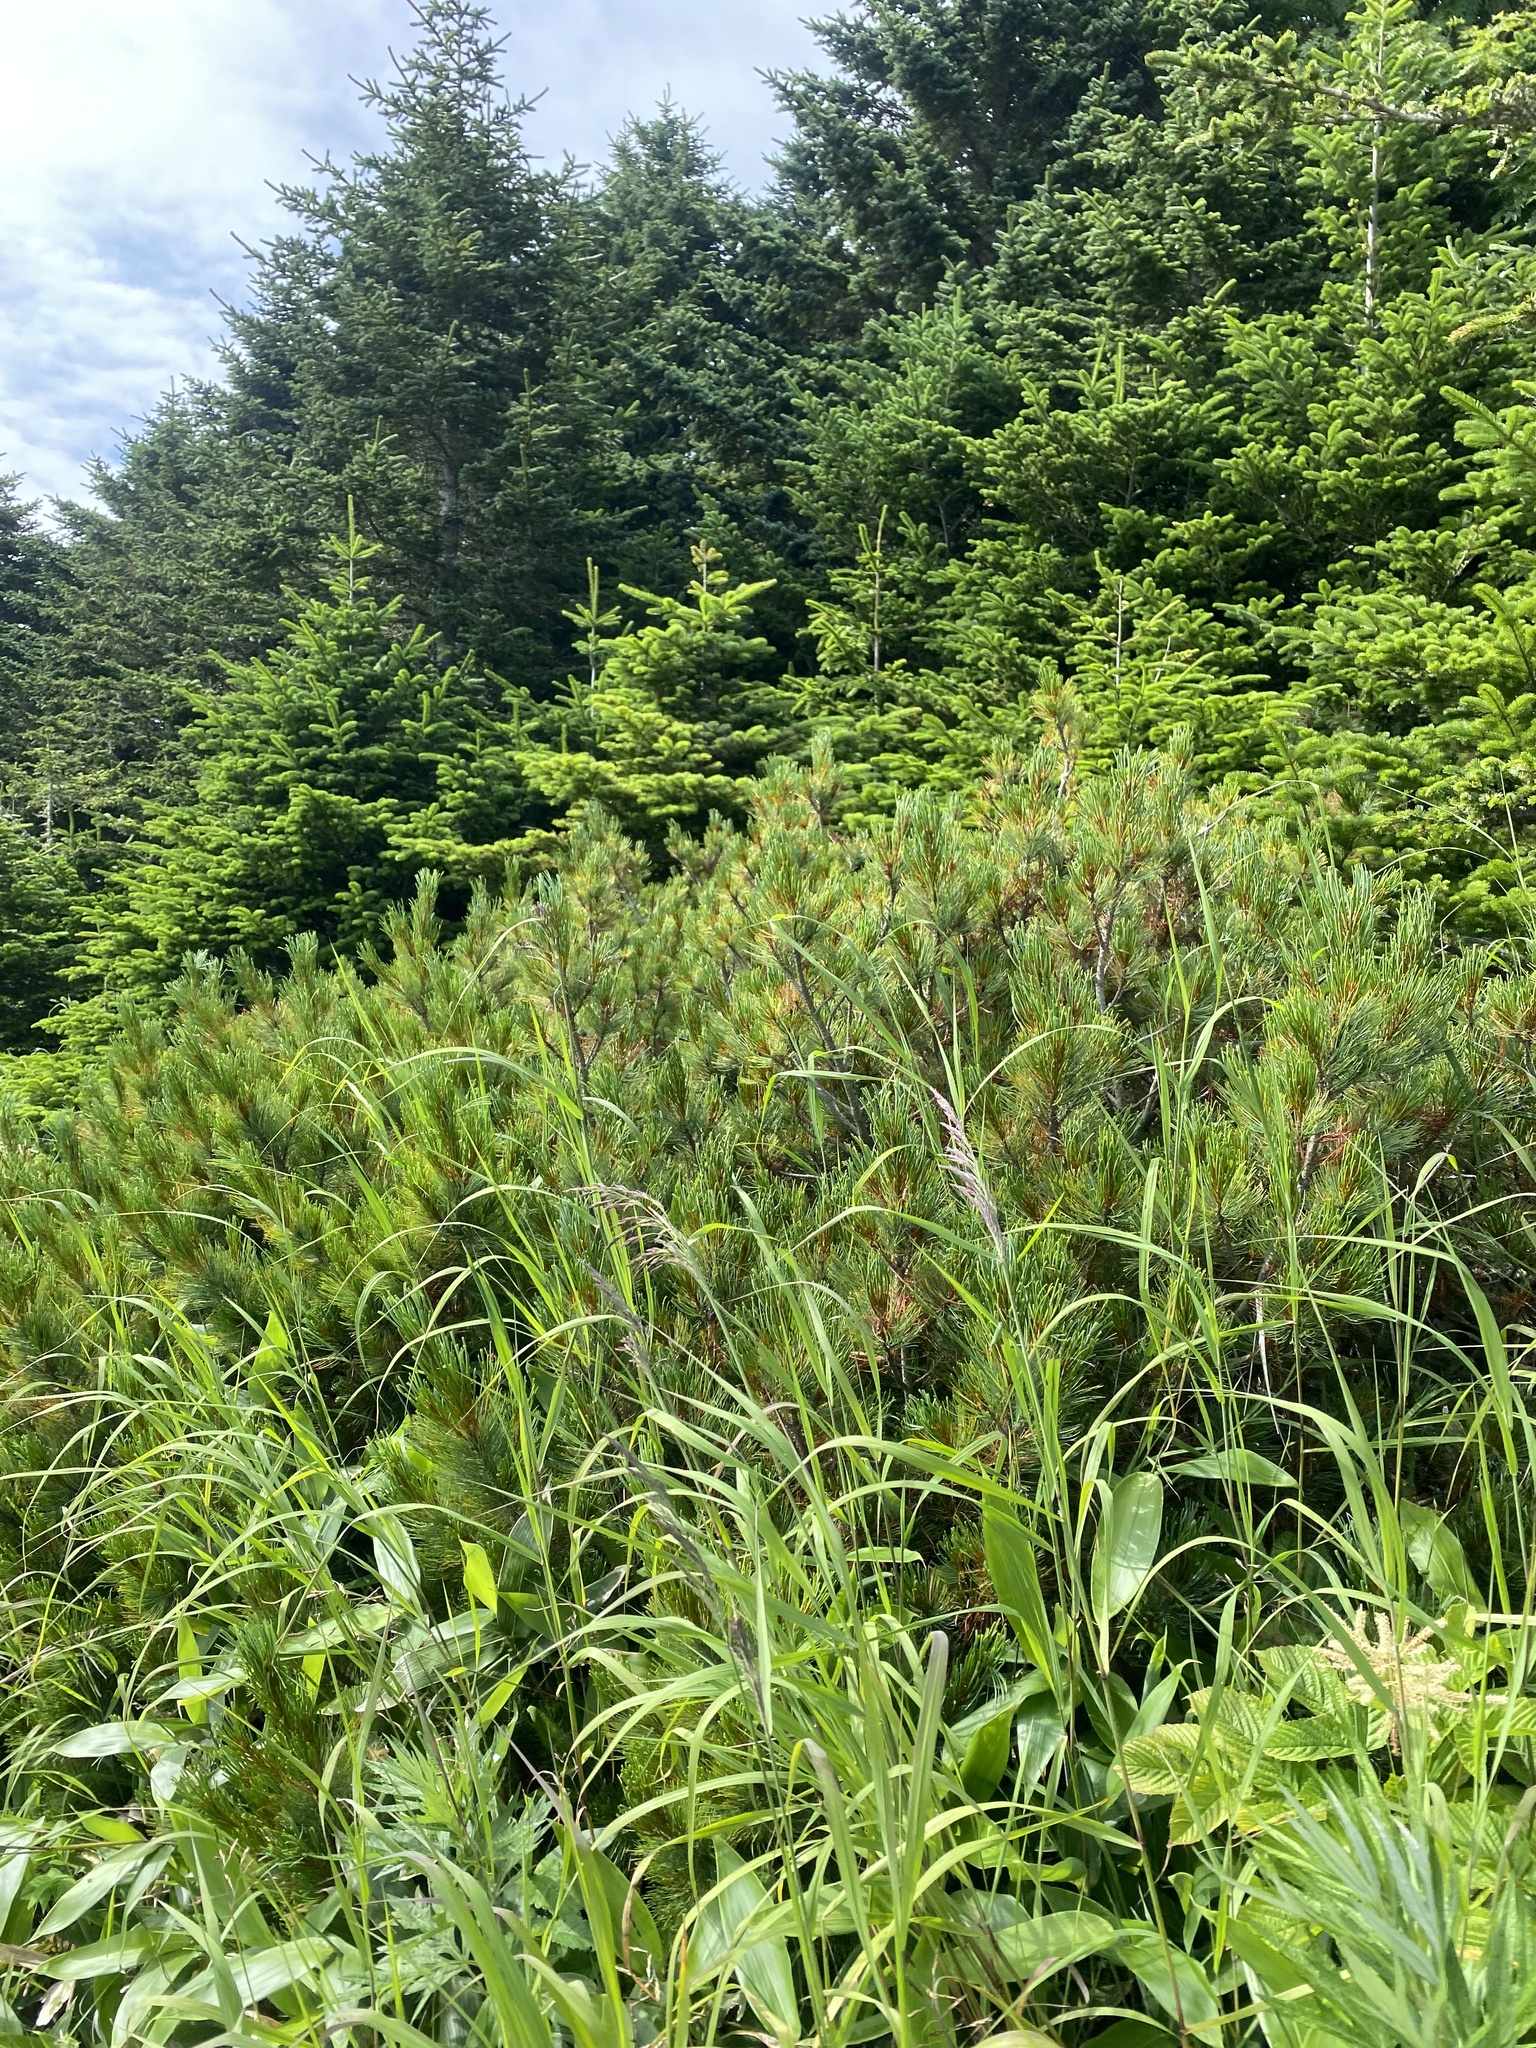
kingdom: Plantae
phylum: Tracheophyta
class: Pinopsida
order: Pinales
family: Pinaceae
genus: Pinus
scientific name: Pinus pumila
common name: Dwarf siberian pine
